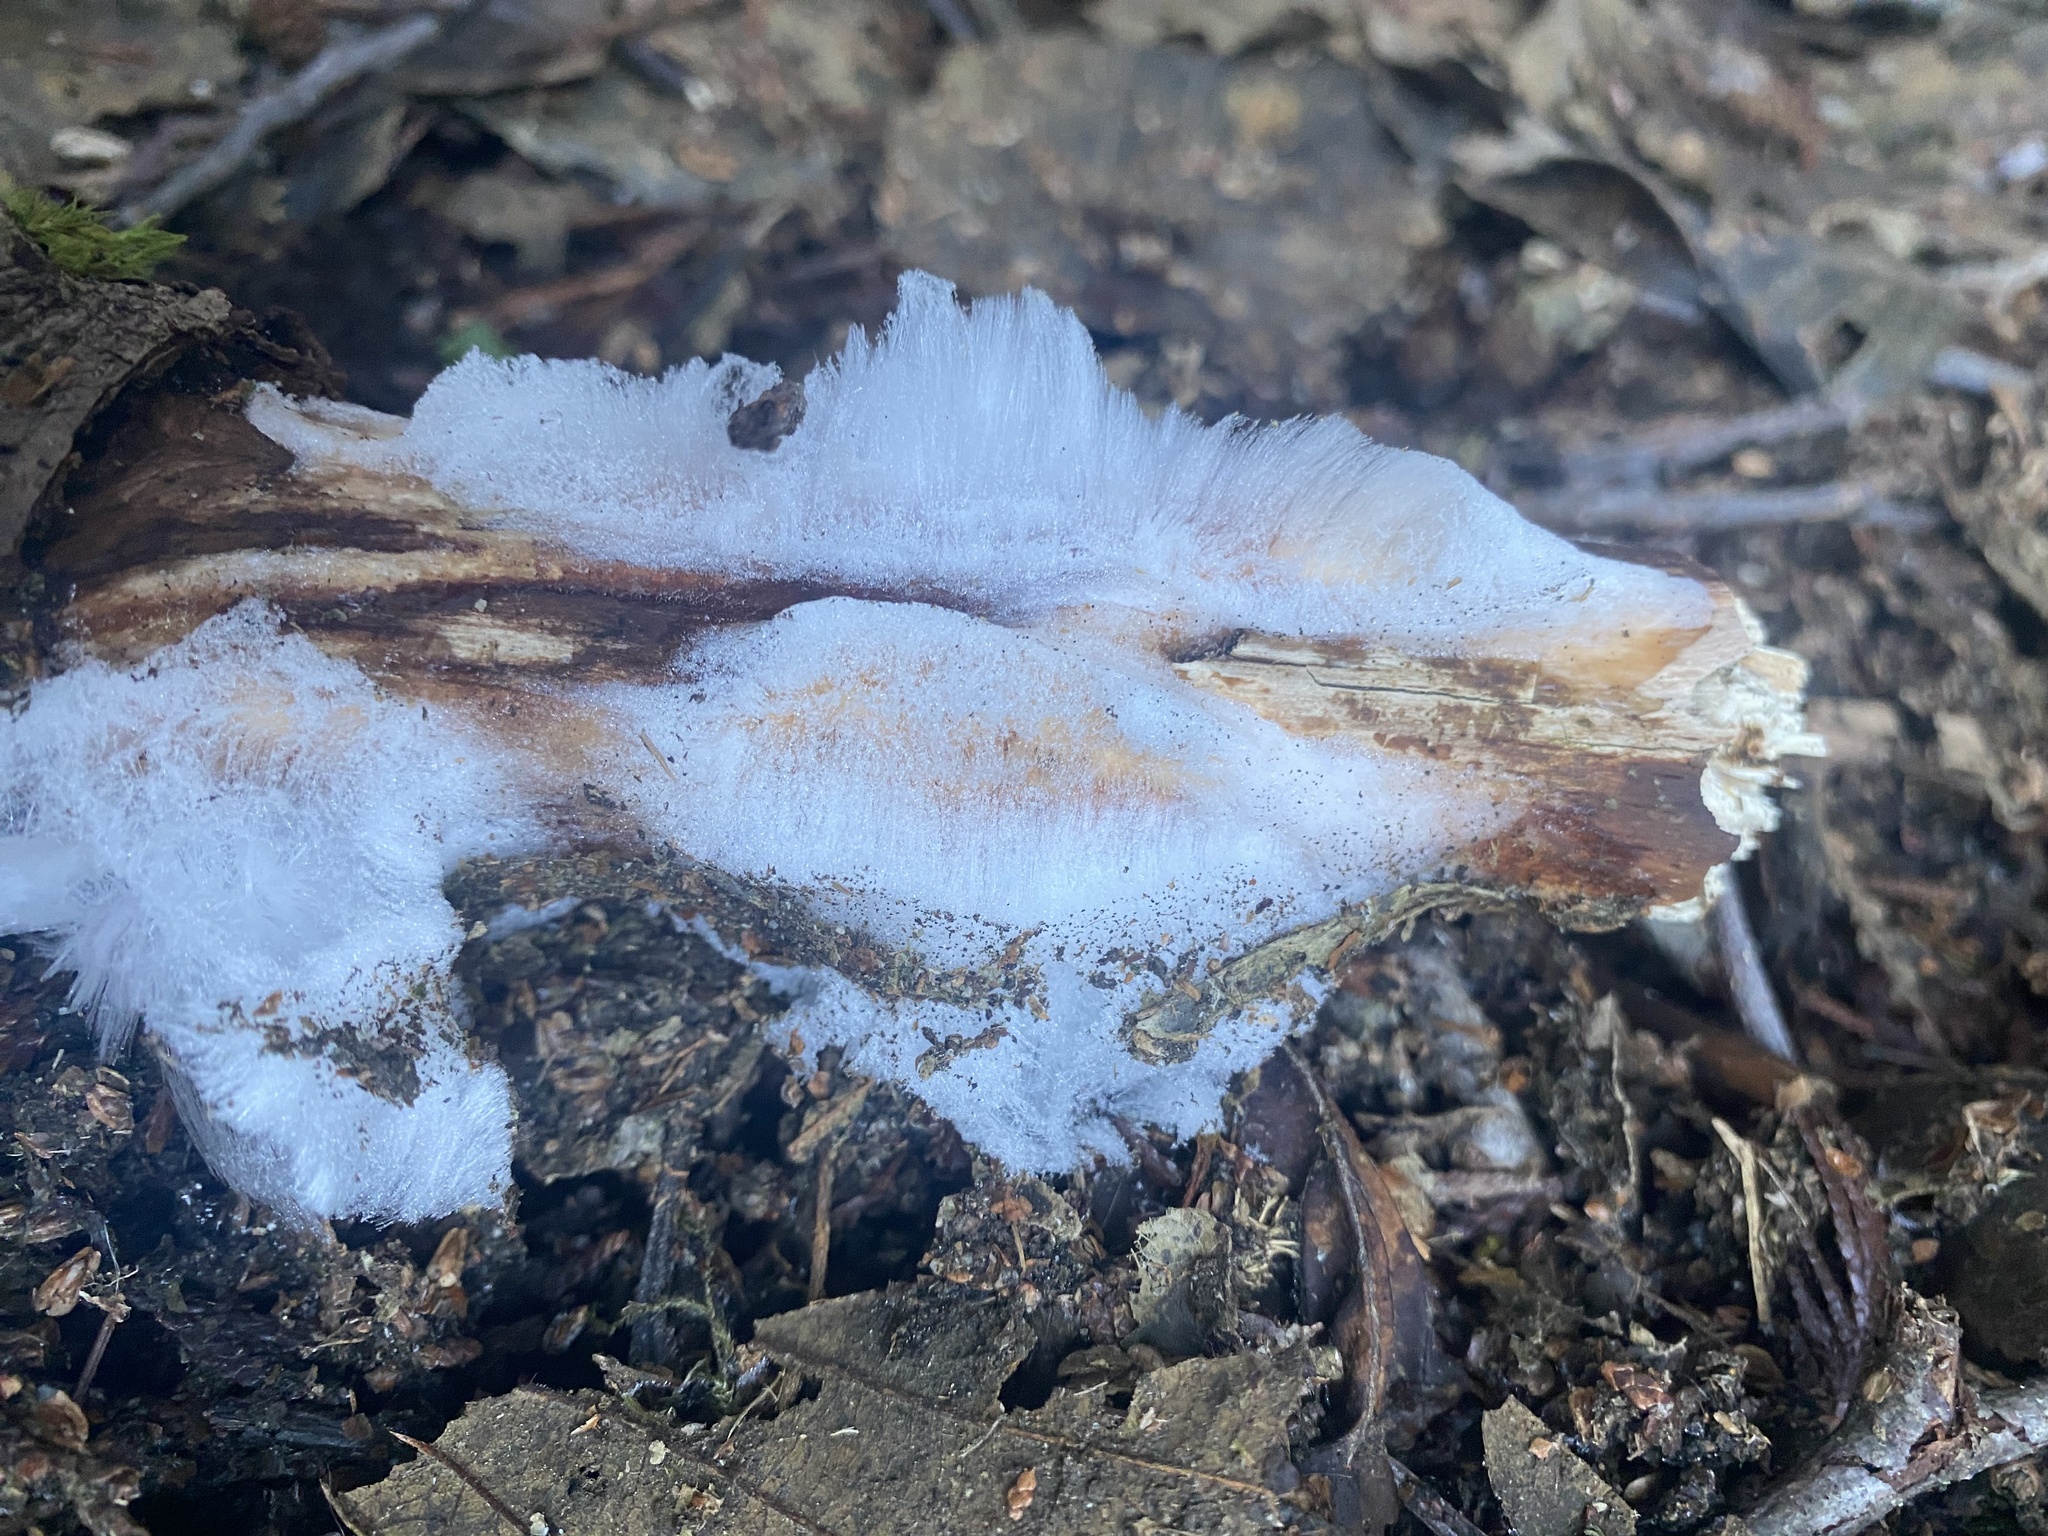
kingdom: Fungi
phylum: Basidiomycota
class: Agaricomycetes
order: Auriculariales
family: Auriculariaceae
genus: Exidiopsis
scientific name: Exidiopsis effusa
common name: Hair ice crust
